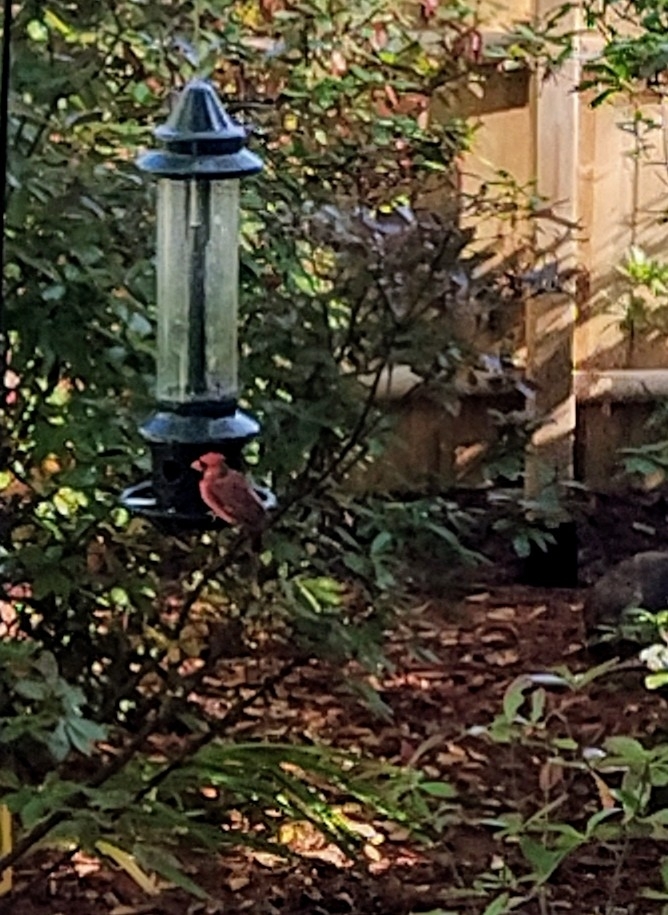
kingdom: Animalia
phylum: Chordata
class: Aves
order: Passeriformes
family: Cardinalidae
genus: Cardinalis
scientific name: Cardinalis cardinalis
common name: Northern cardinal
